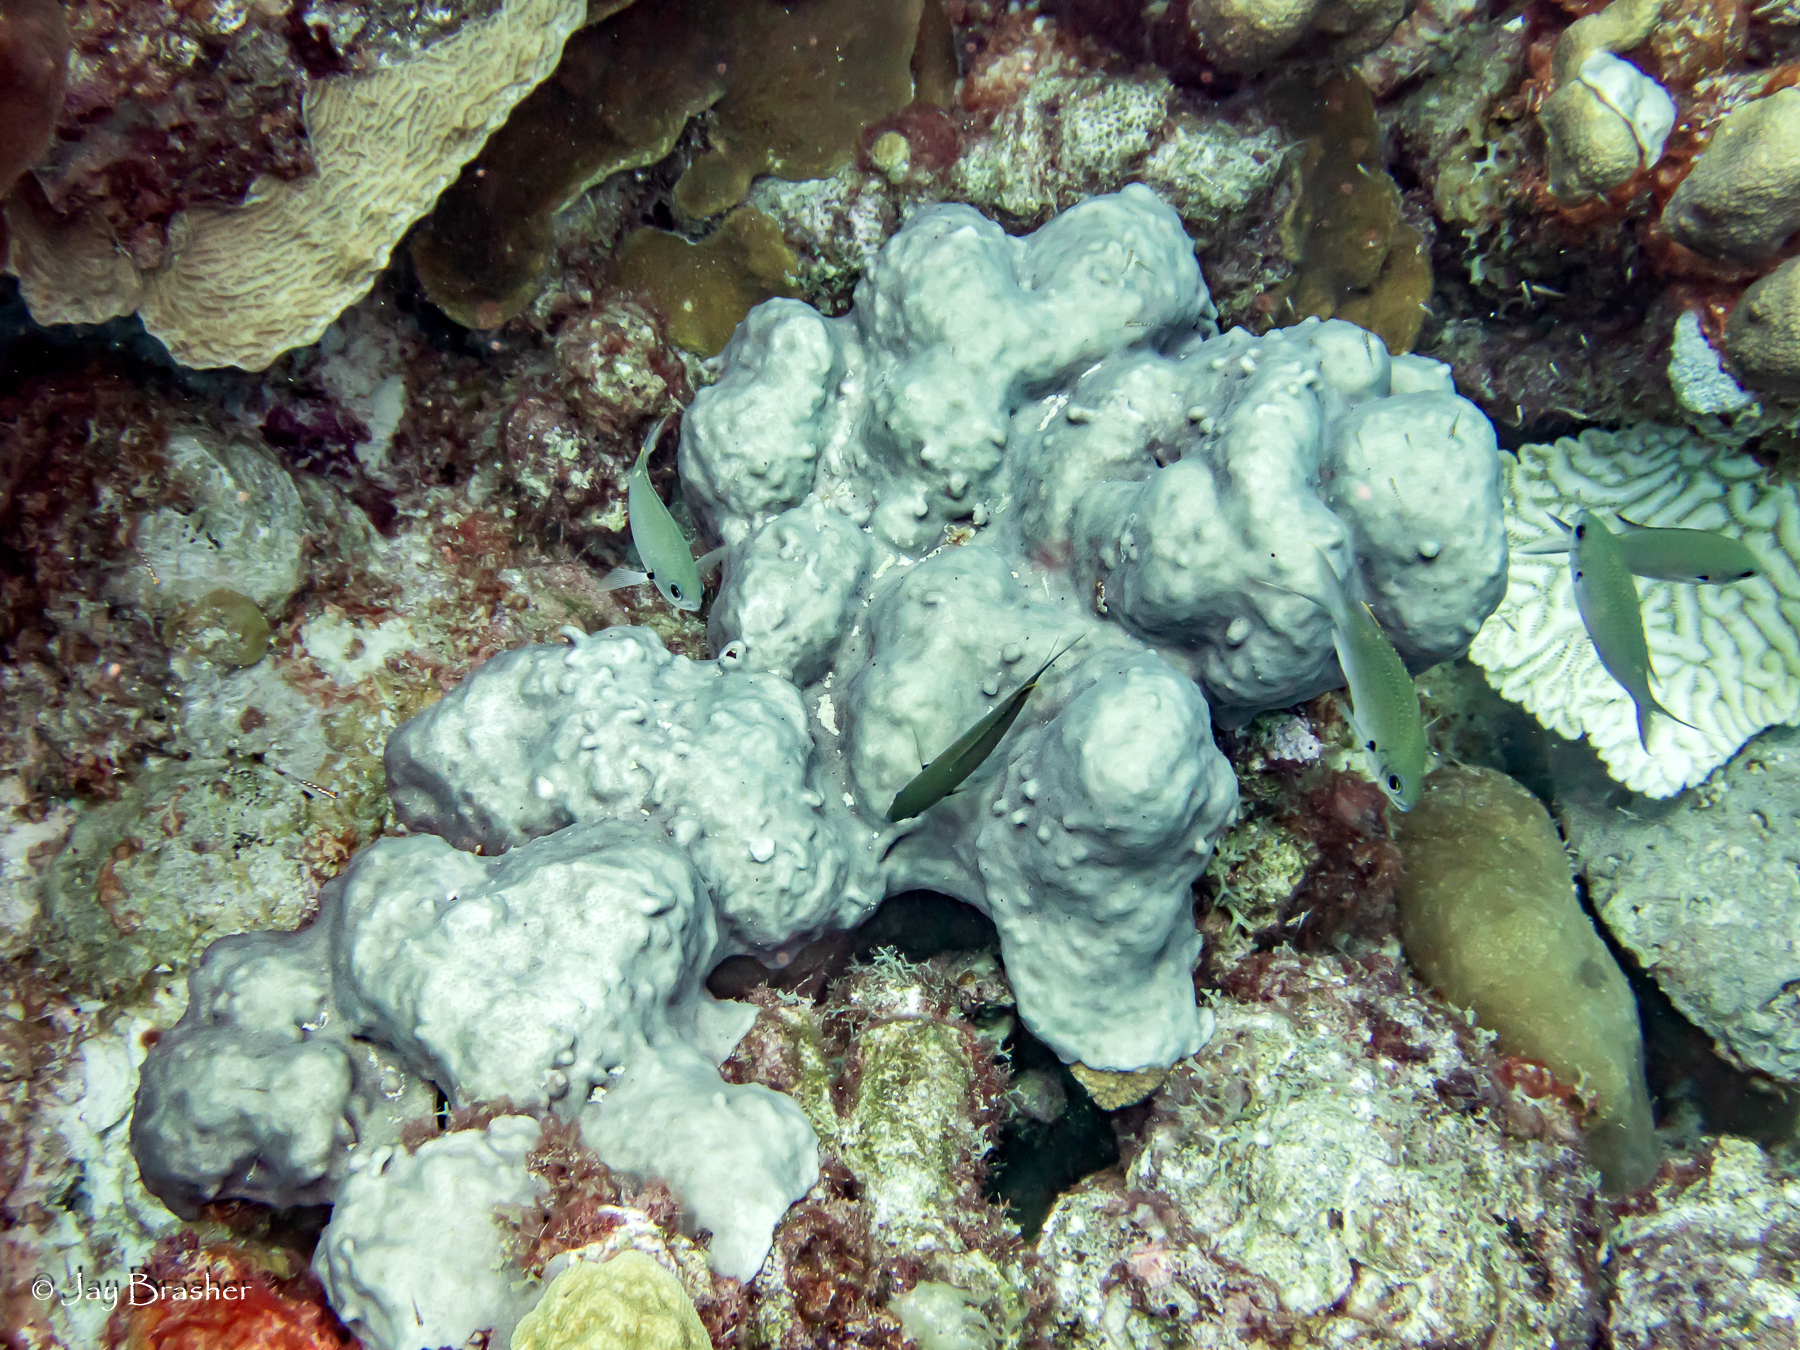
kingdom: Animalia
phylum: Chordata
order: Perciformes
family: Pomacentridae
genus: Chromis
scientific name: Chromis multilineata
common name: Brown chromis
